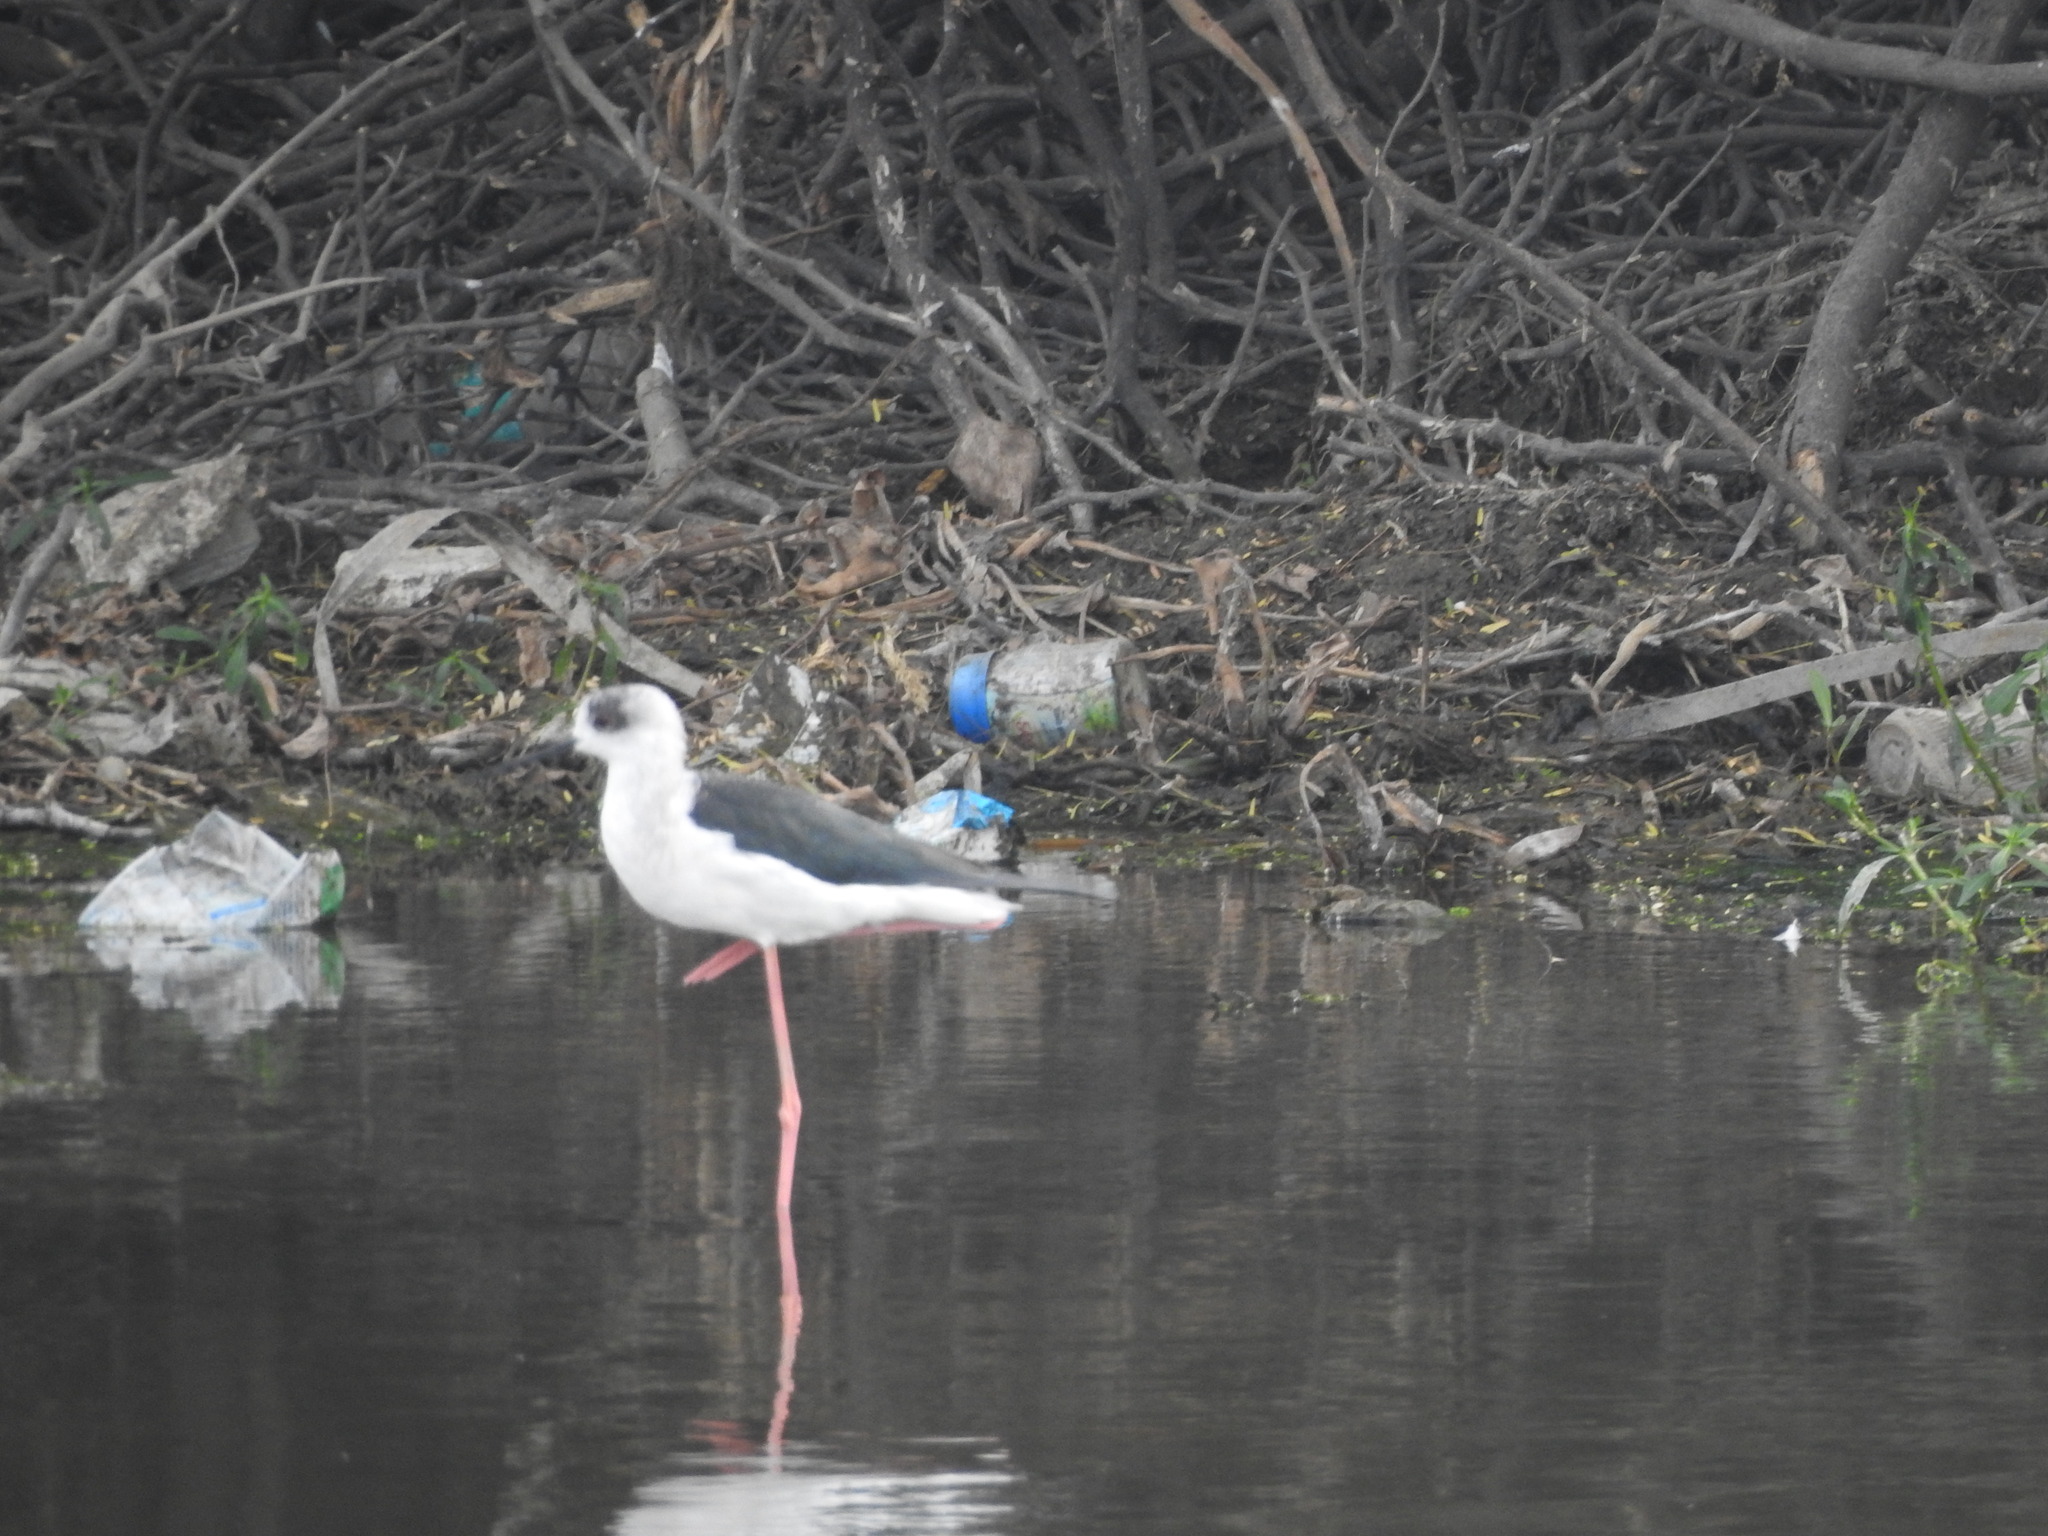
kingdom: Animalia
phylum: Chordata
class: Aves
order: Charadriiformes
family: Recurvirostridae
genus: Himantopus
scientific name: Himantopus himantopus
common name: Black-winged stilt
